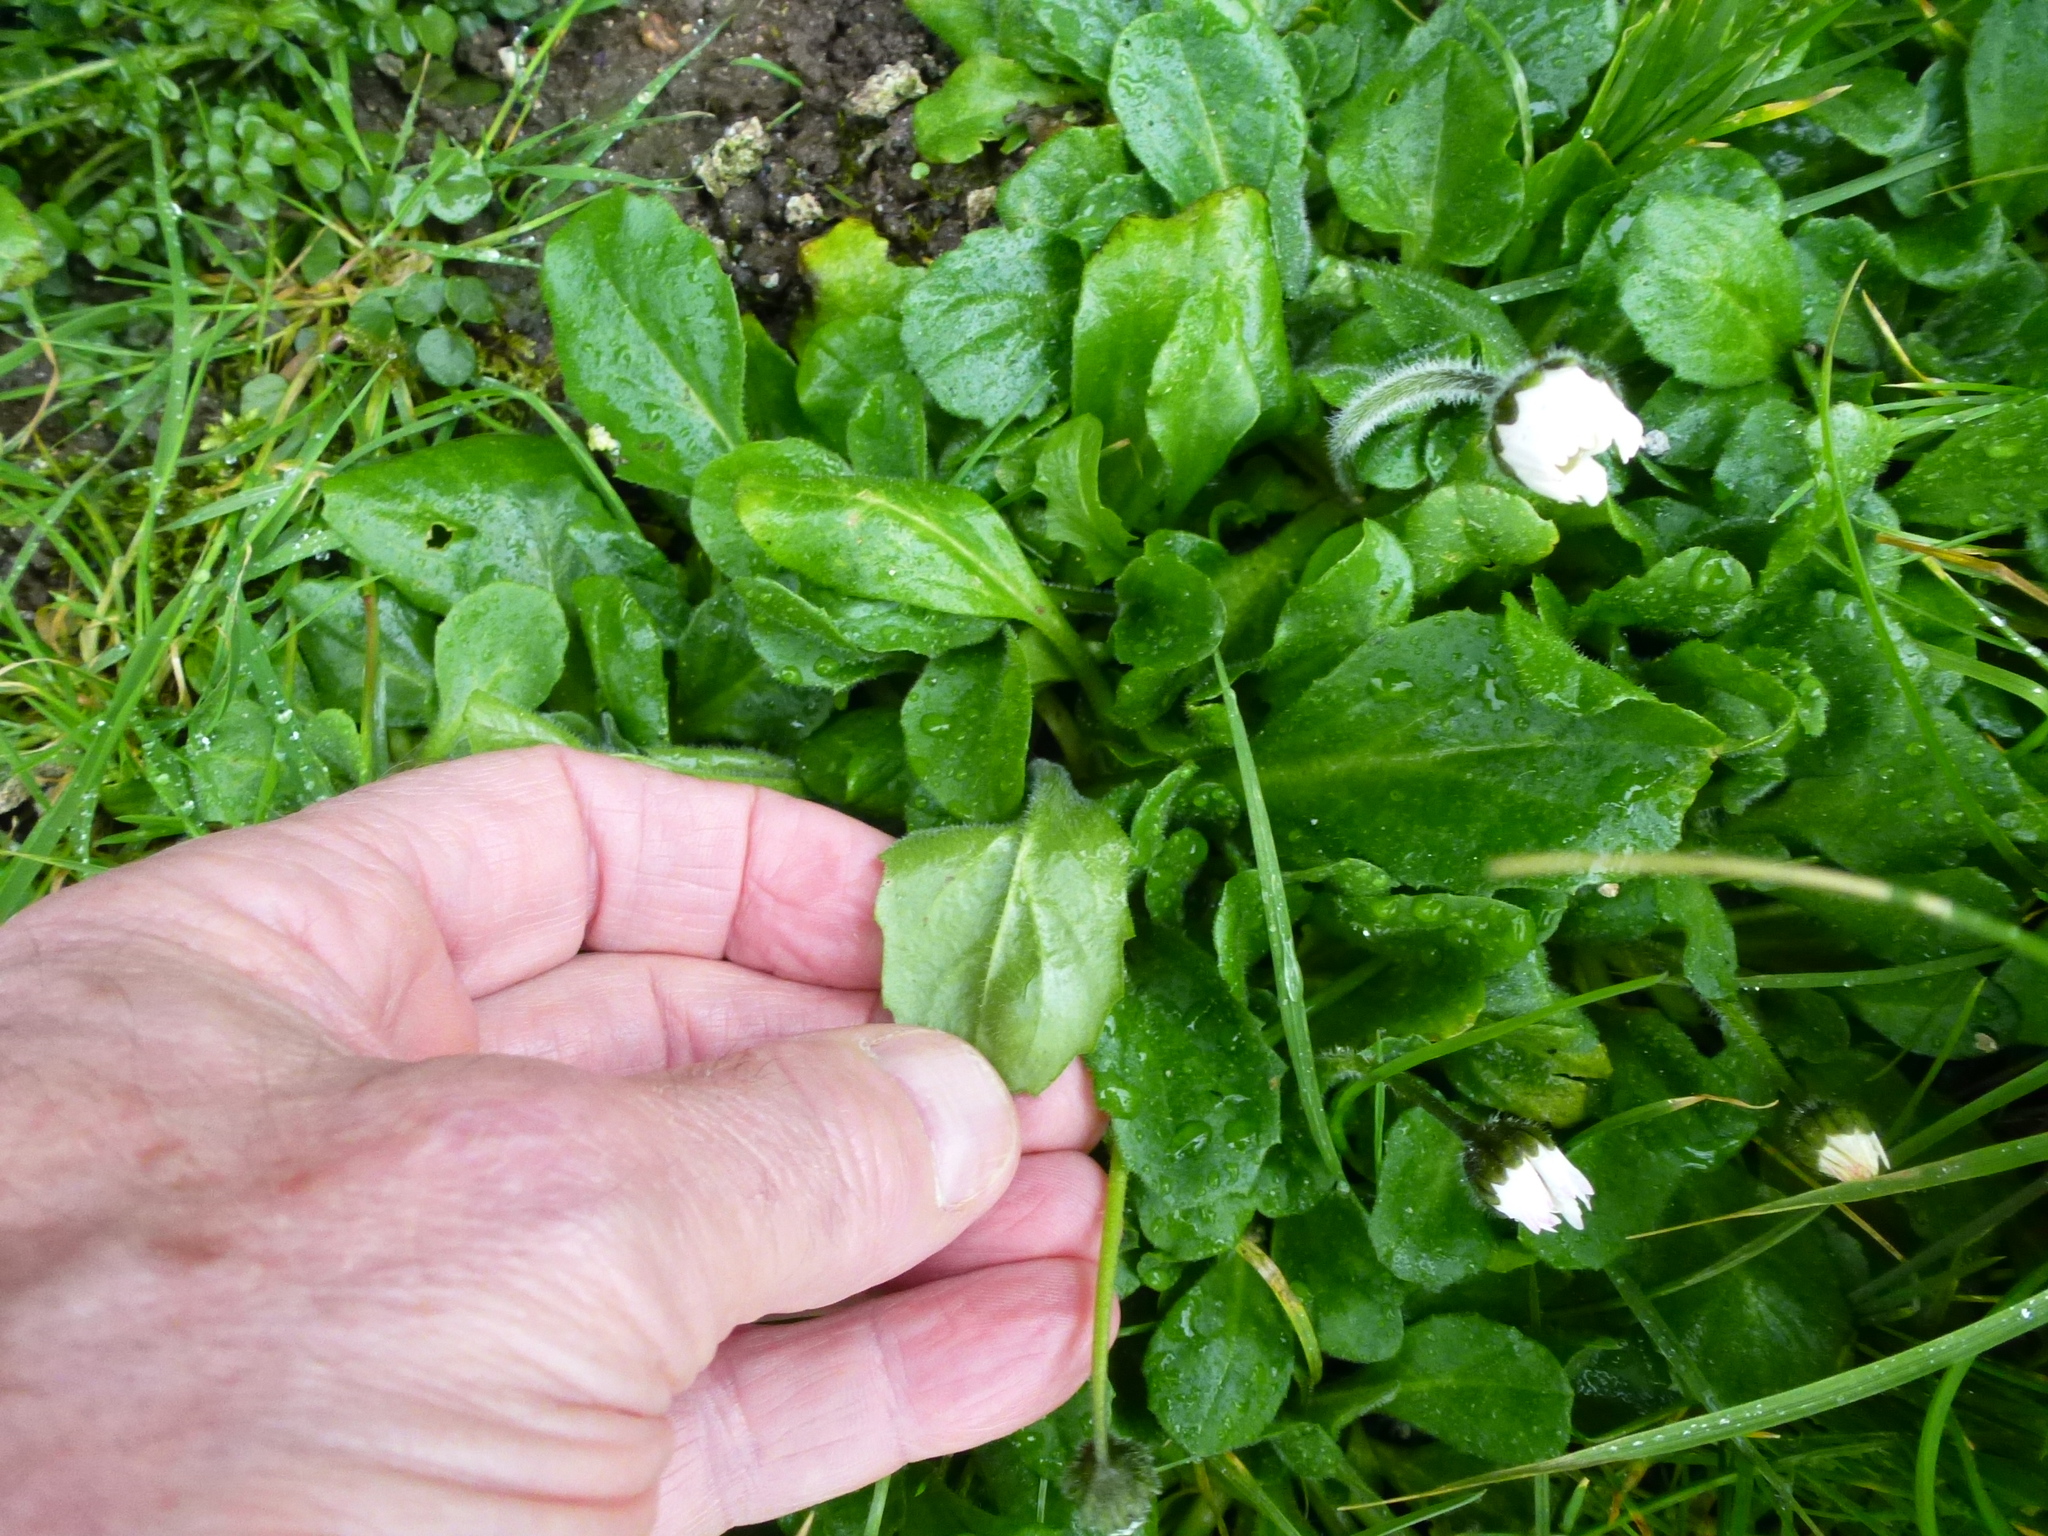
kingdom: Plantae
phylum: Tracheophyta
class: Magnoliopsida
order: Asterales
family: Asteraceae
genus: Bellis
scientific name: Bellis perennis
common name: Lawndaisy
